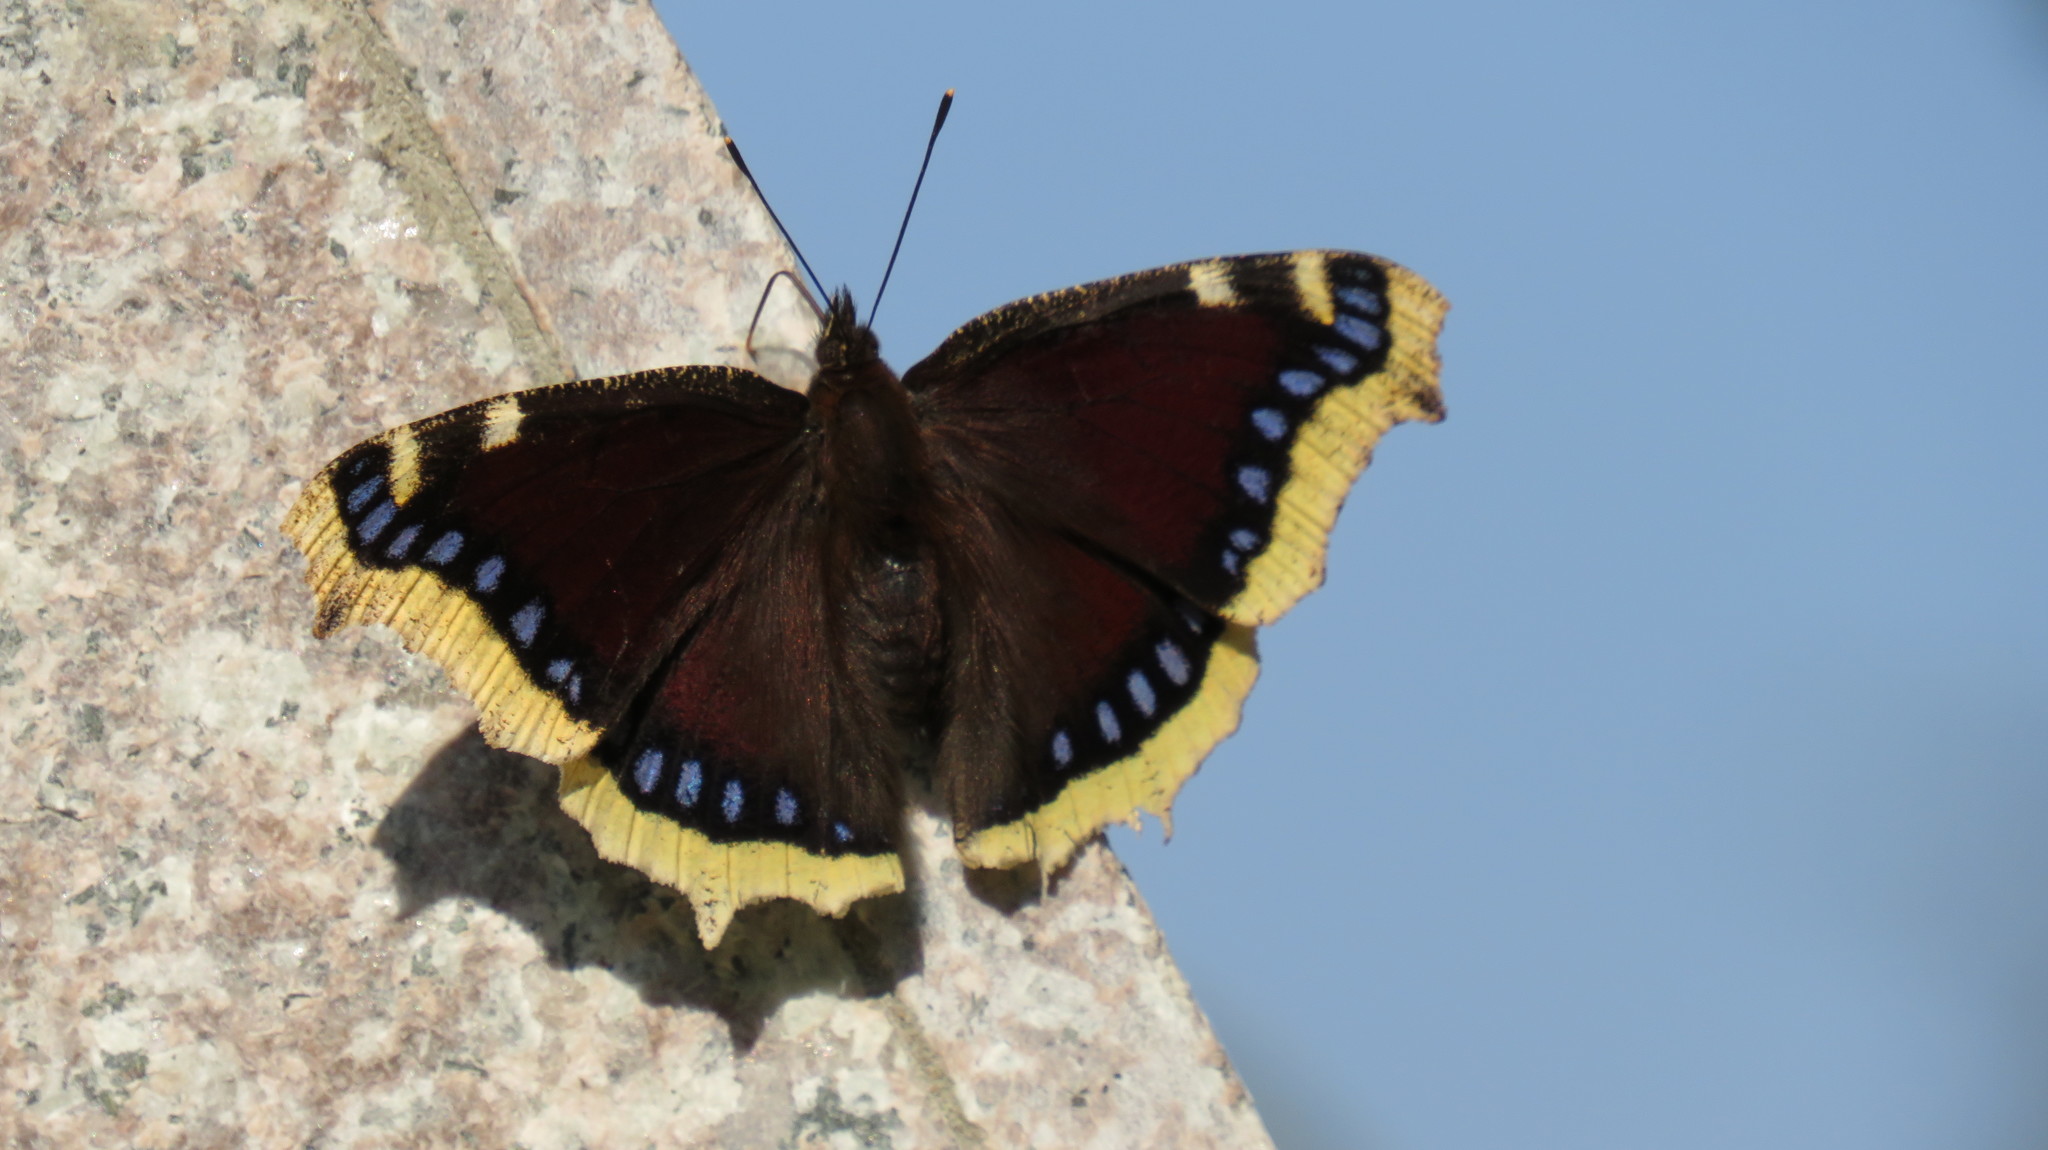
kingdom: Animalia
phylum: Arthropoda
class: Insecta
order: Lepidoptera
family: Nymphalidae
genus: Nymphalis
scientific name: Nymphalis antiopa
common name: Camberwell beauty
